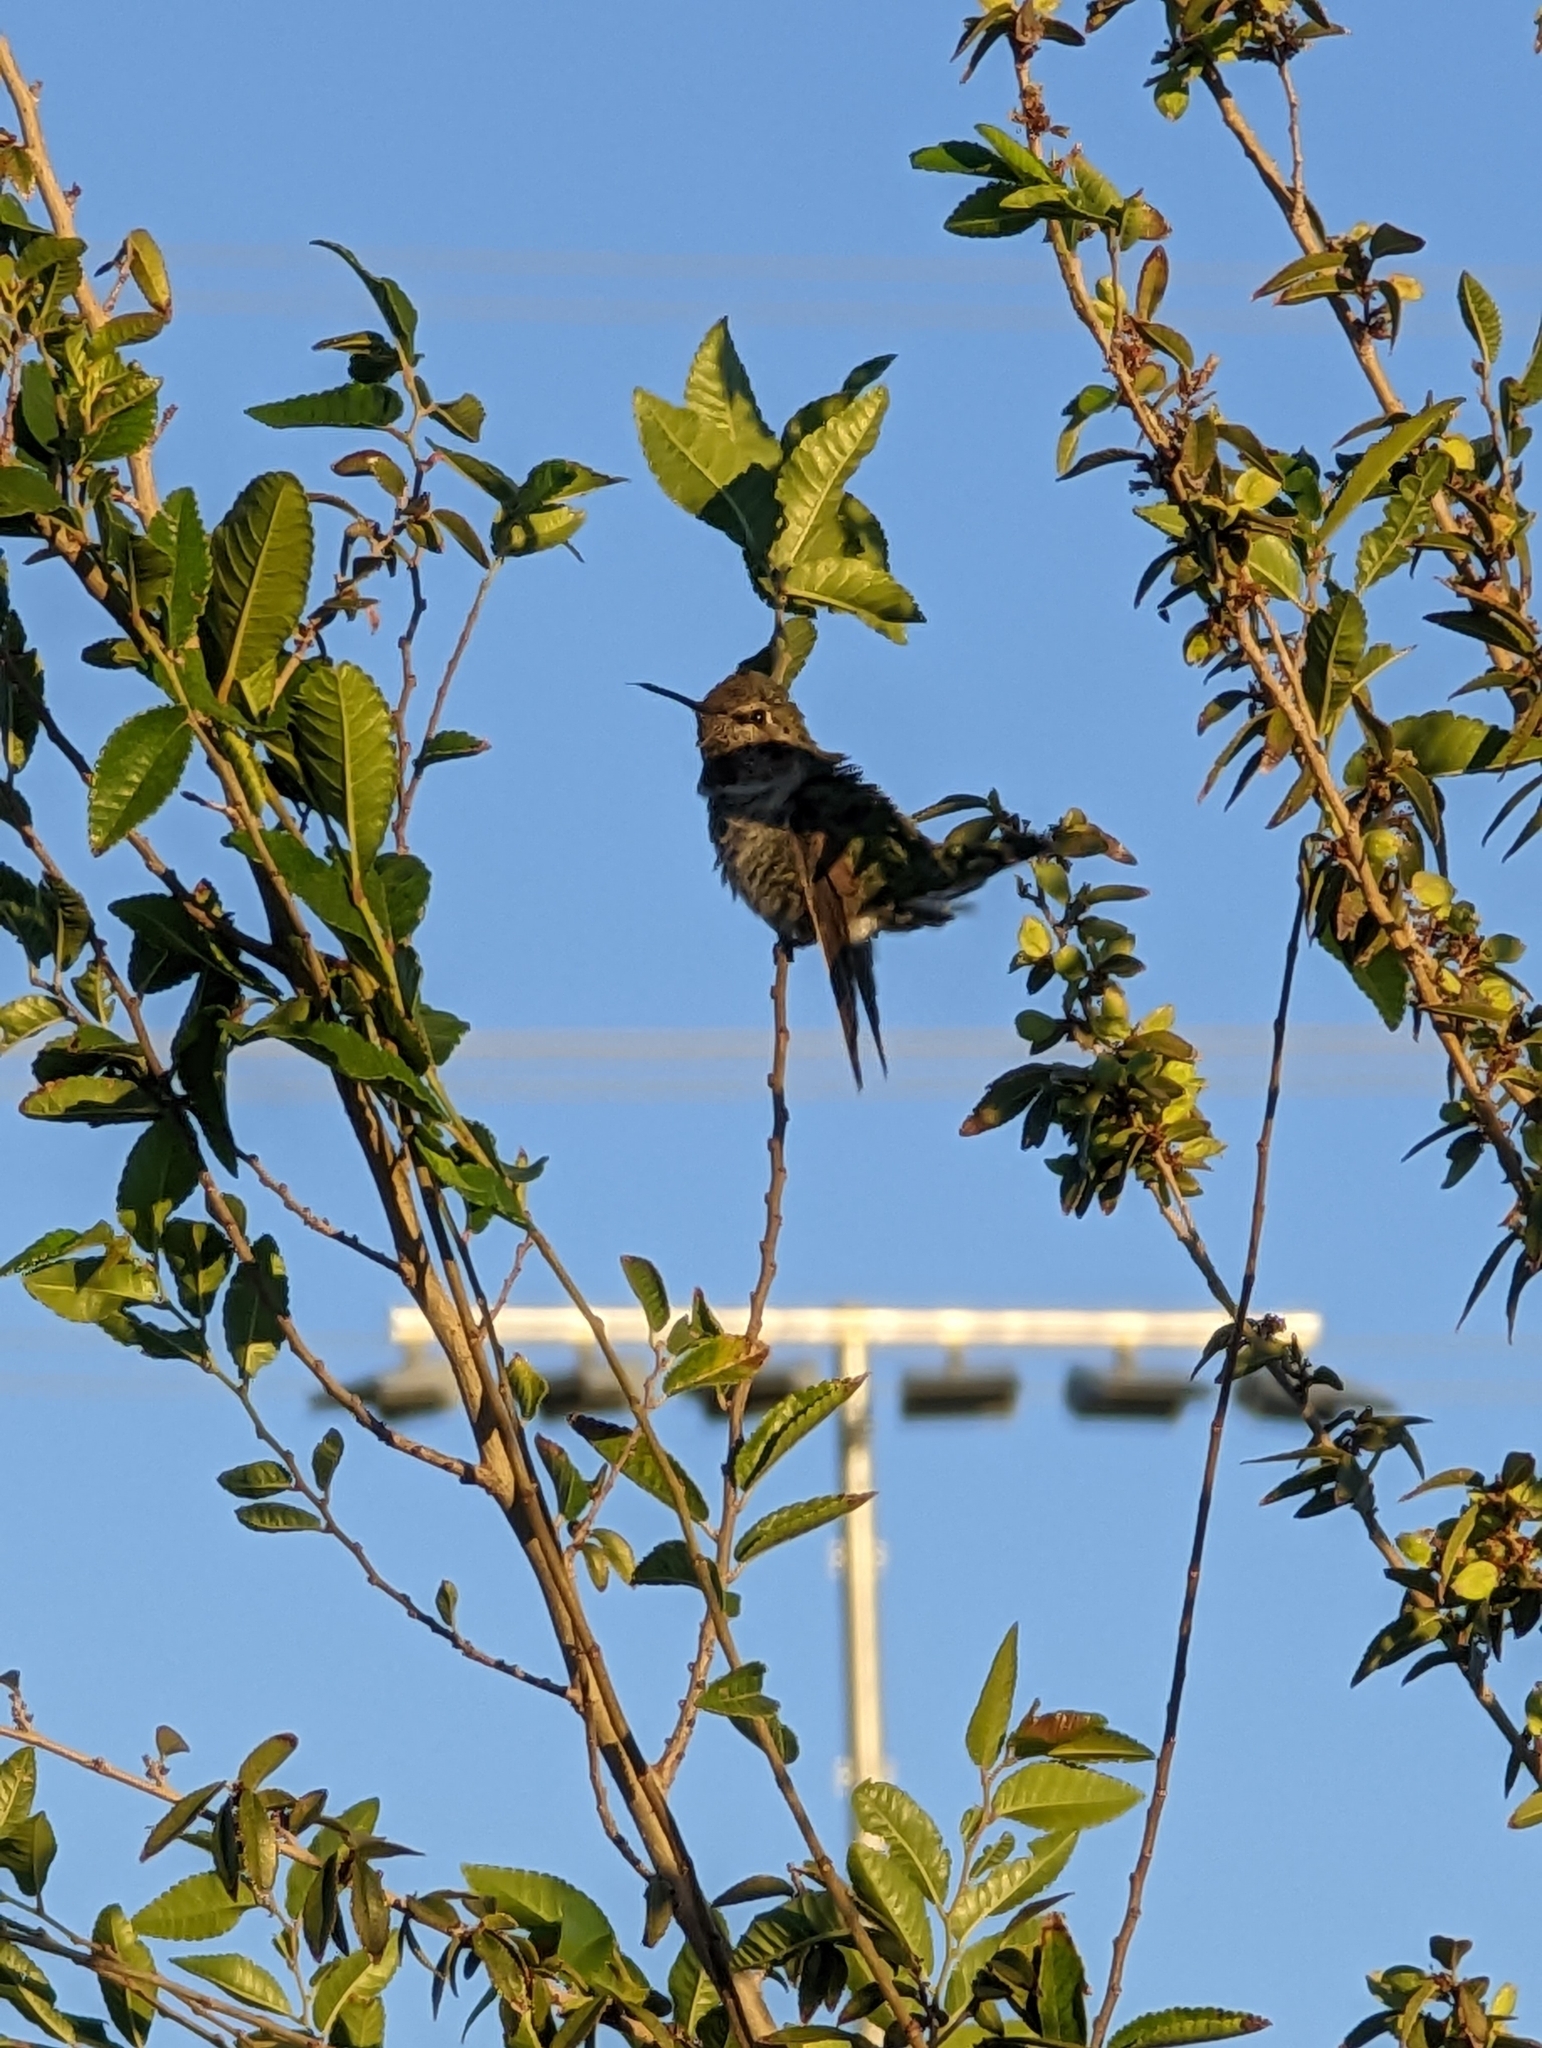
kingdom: Animalia
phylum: Chordata
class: Aves
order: Apodiformes
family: Trochilidae
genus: Calypte
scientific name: Calypte anna
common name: Anna's hummingbird
